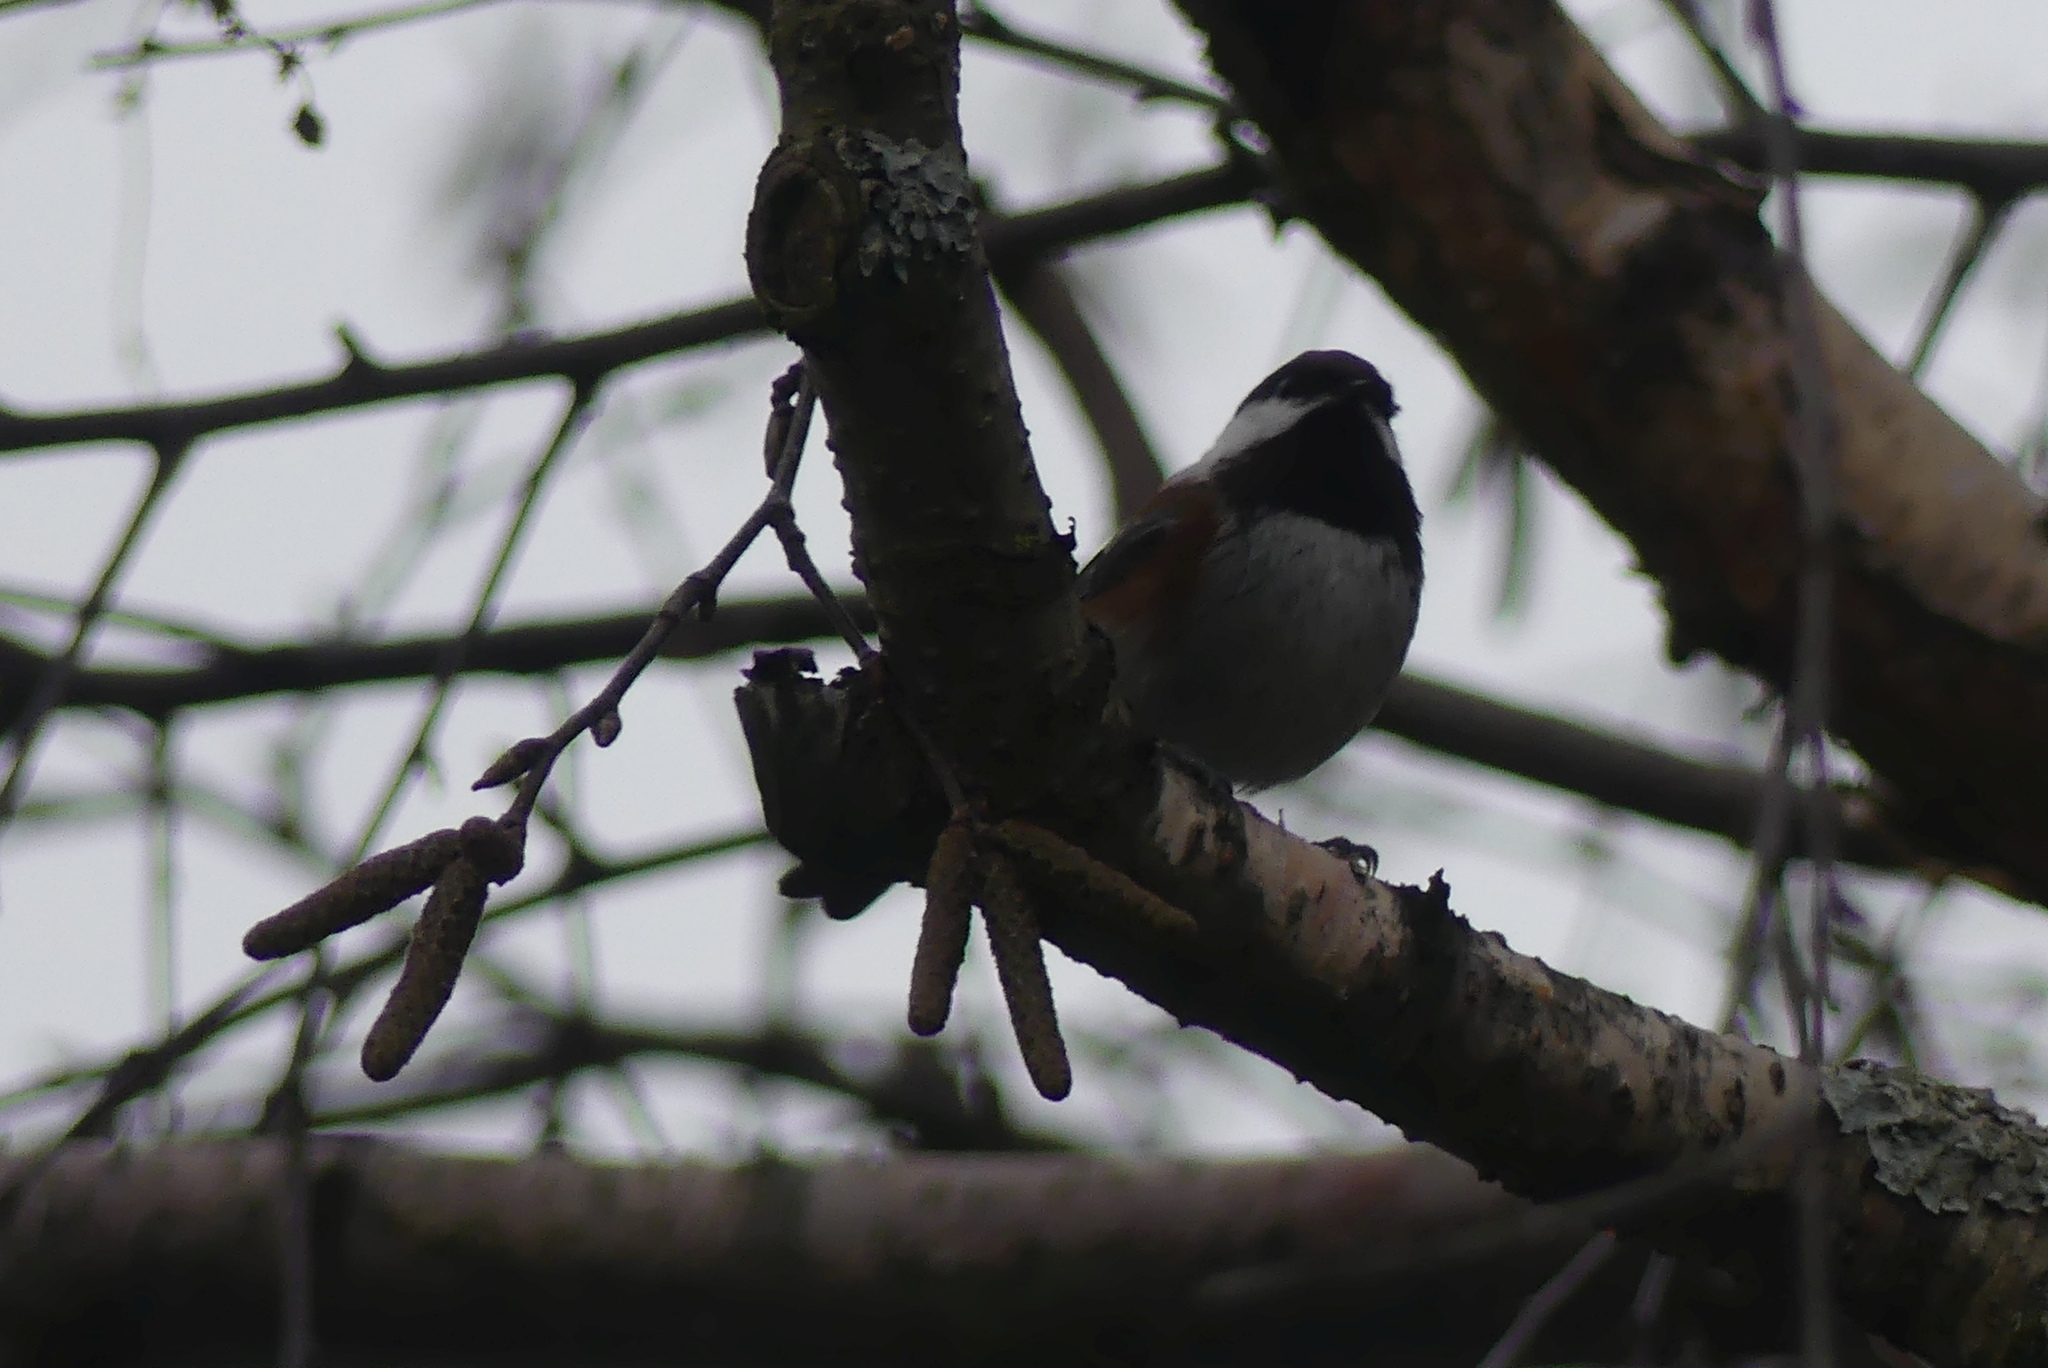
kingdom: Animalia
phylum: Chordata
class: Aves
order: Passeriformes
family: Paridae
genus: Poecile
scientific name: Poecile rufescens
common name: Chestnut-backed chickadee
